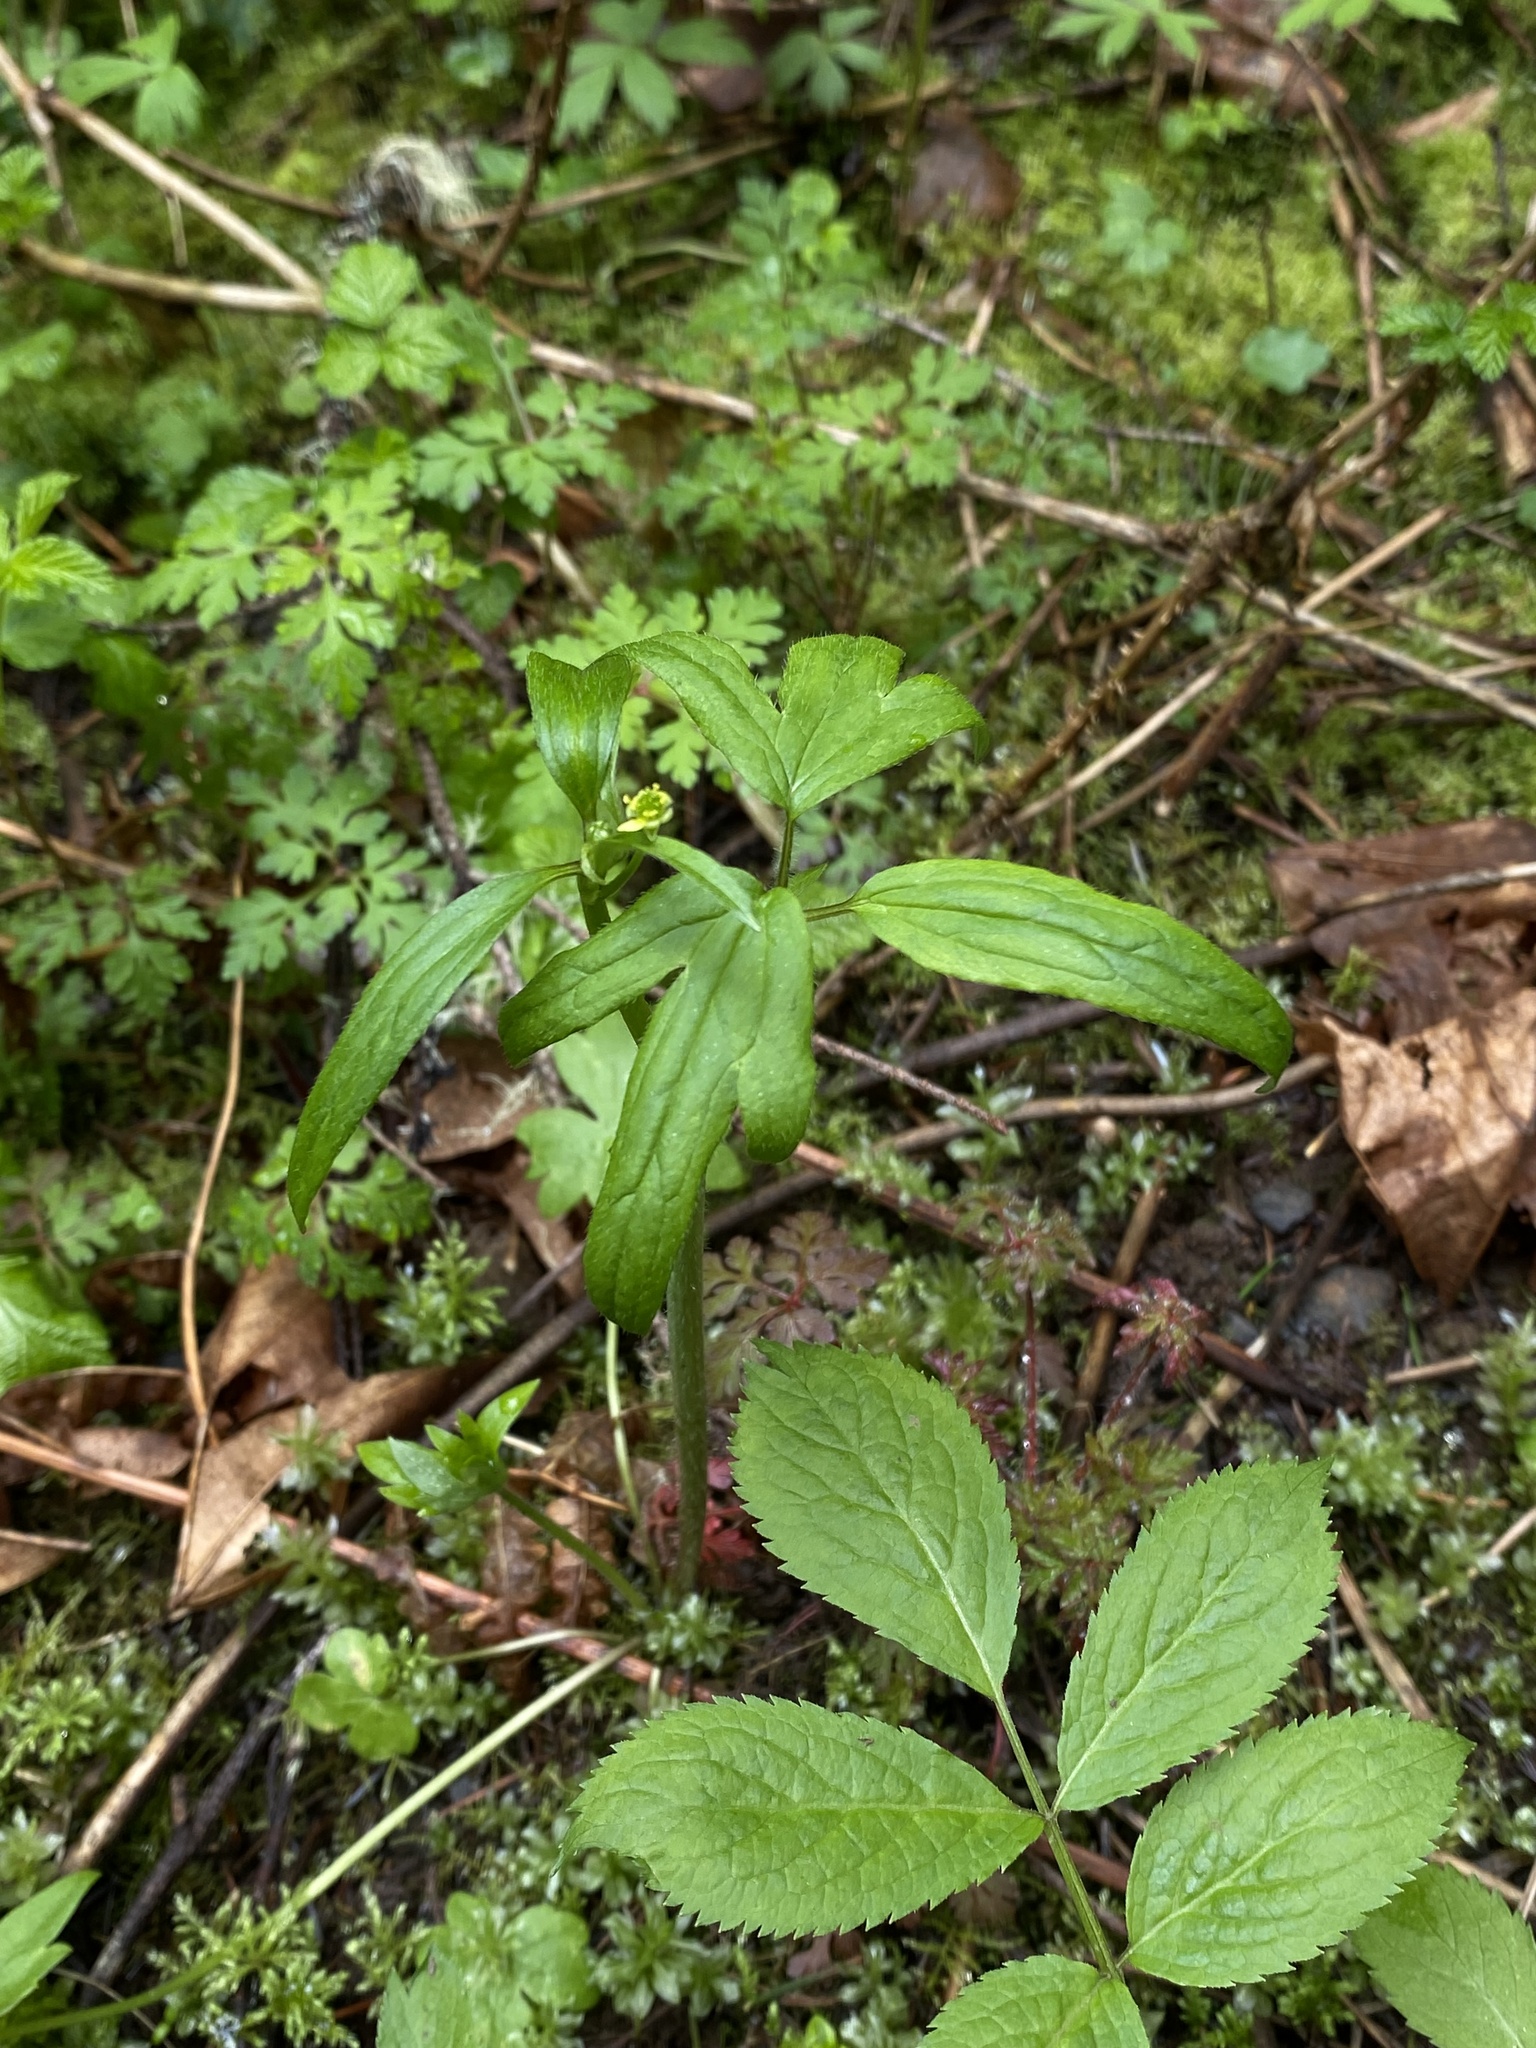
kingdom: Plantae
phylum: Tracheophyta
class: Magnoliopsida
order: Ranunculales
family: Ranunculaceae
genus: Ranunculus
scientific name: Ranunculus uncinatus
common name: Little buttercup
